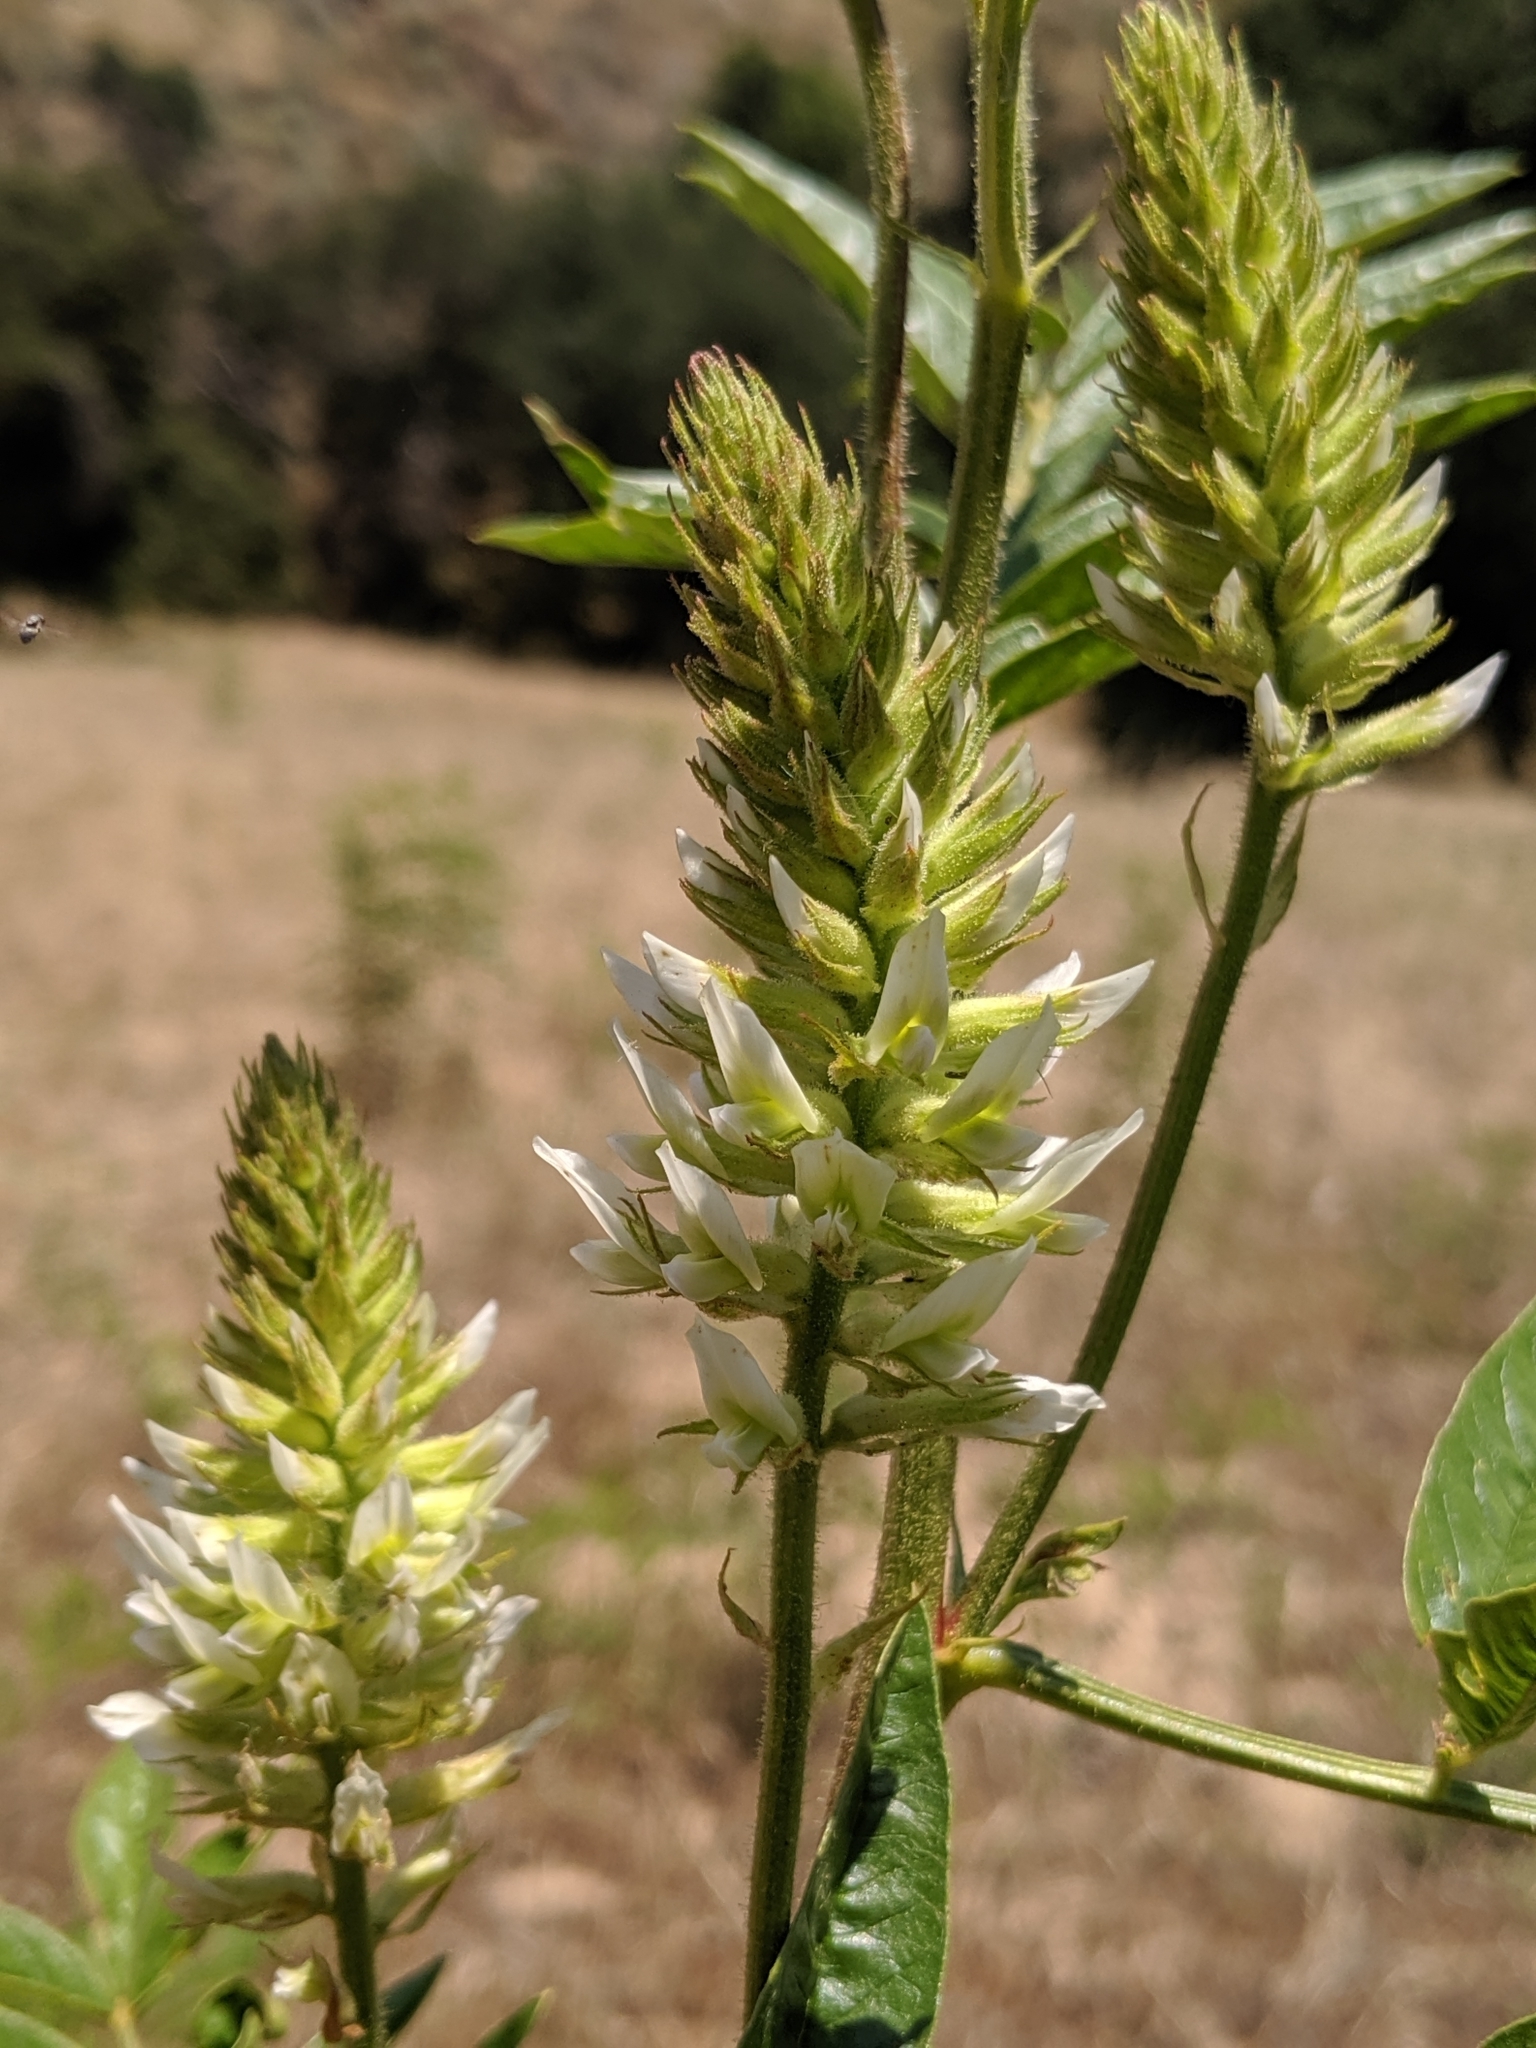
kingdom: Plantae
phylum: Tracheophyta
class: Magnoliopsida
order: Fabales
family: Fabaceae
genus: Glycyrrhiza
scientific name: Glycyrrhiza lepidota
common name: American liquorice
